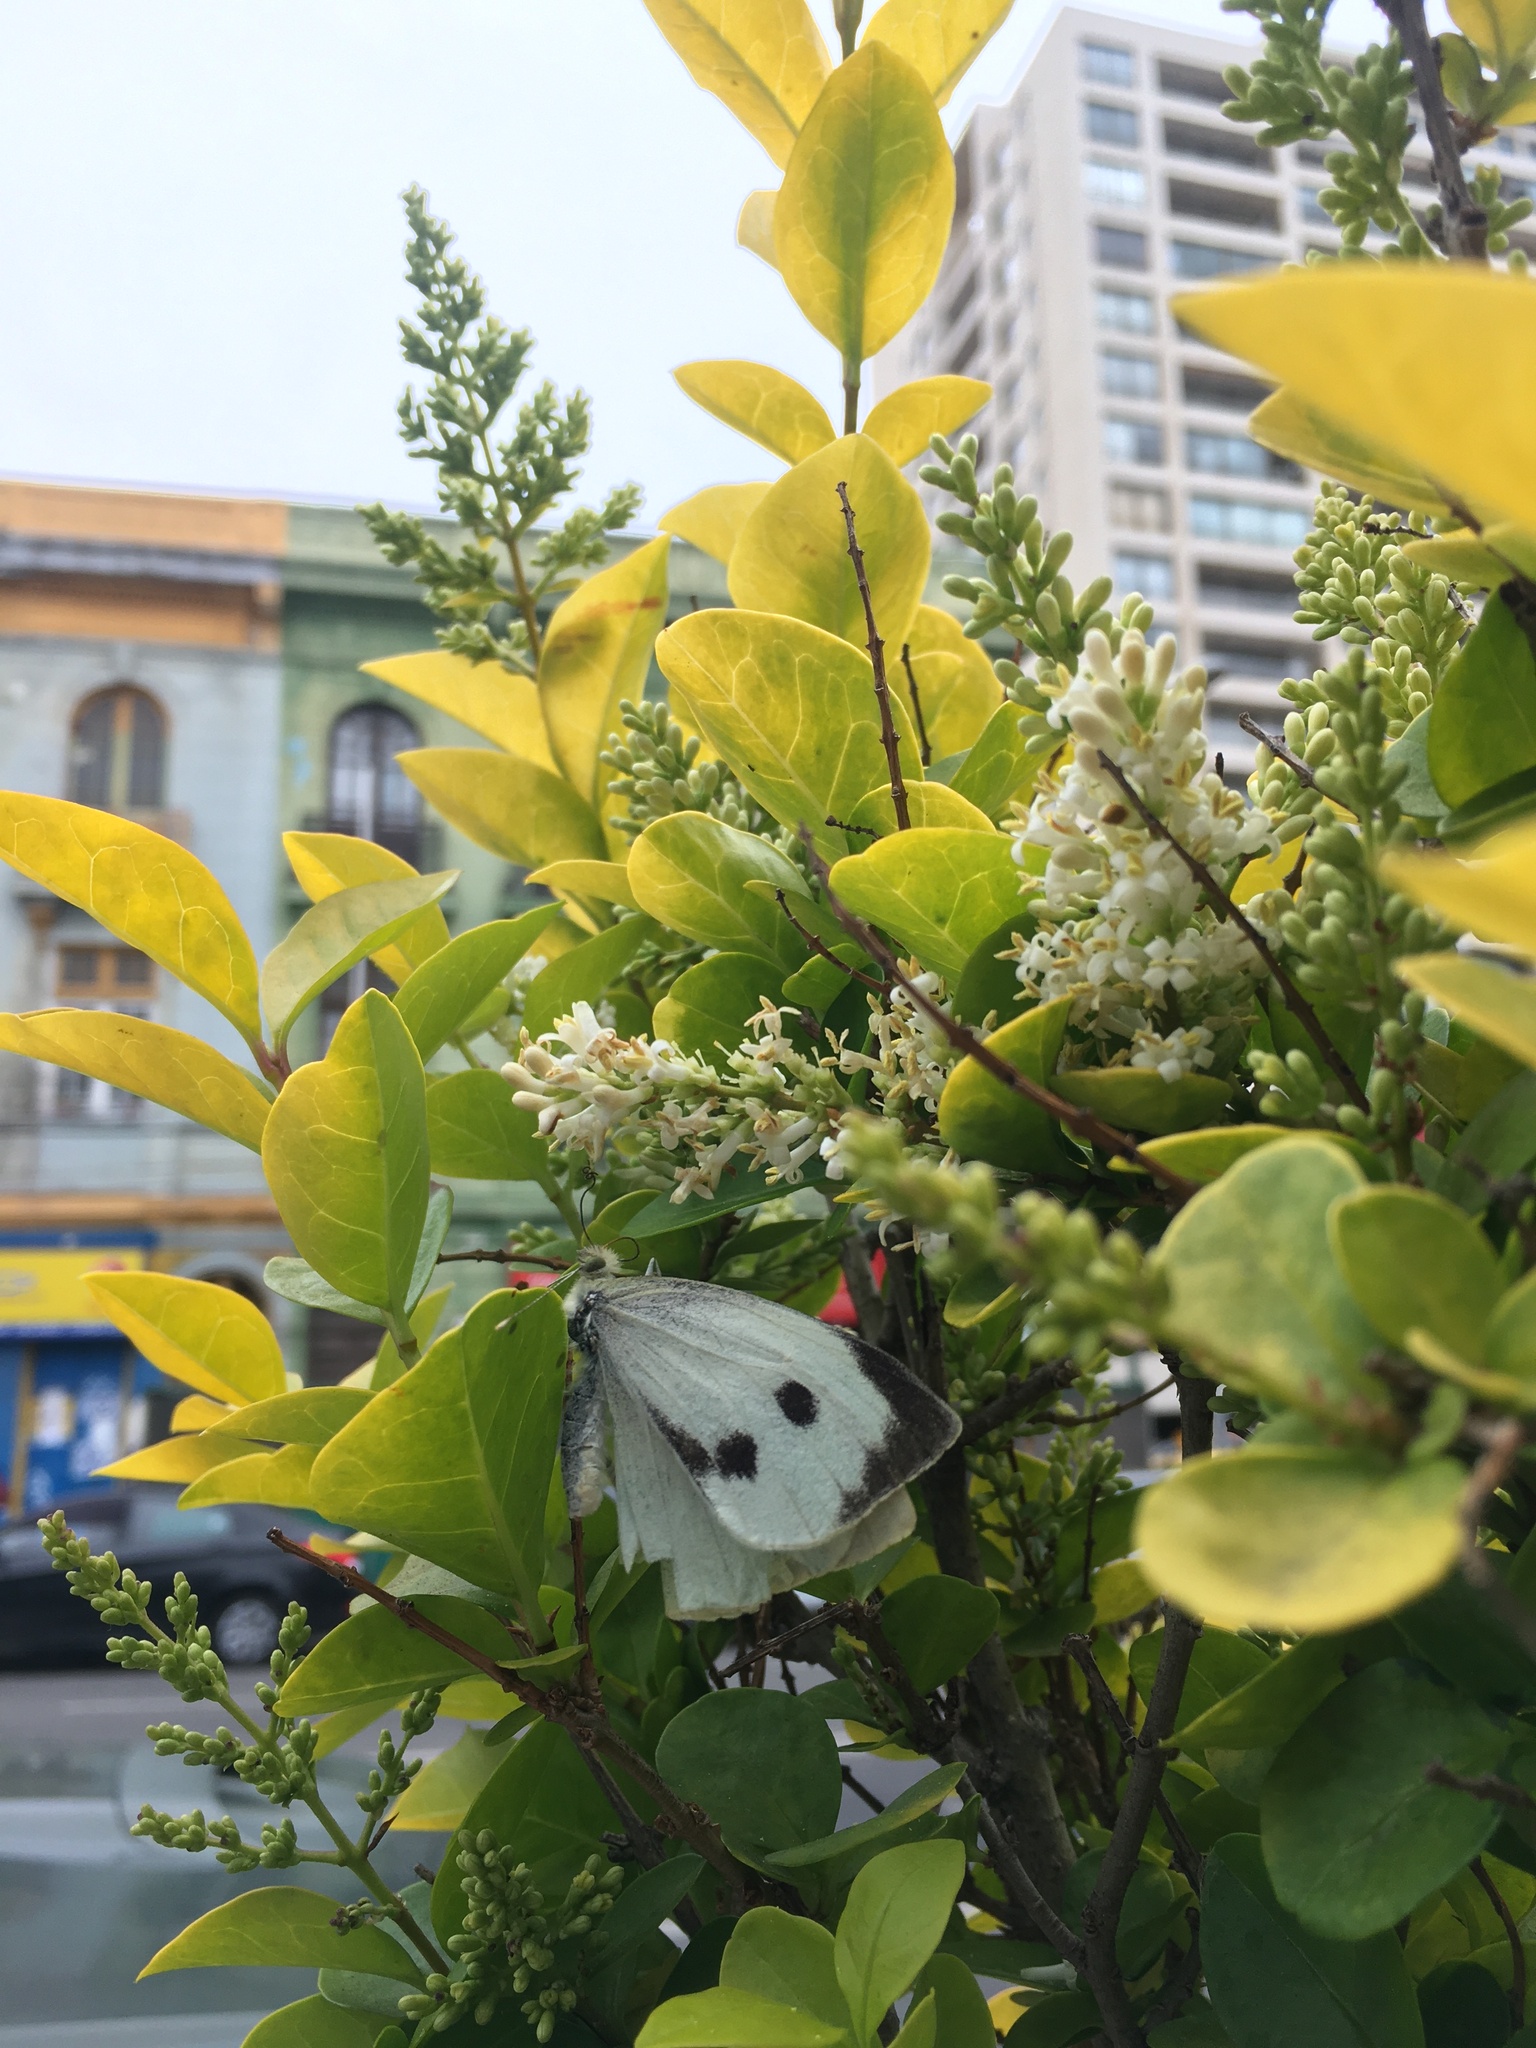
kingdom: Animalia
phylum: Arthropoda
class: Insecta
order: Lepidoptera
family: Pieridae
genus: Pieris
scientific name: Pieris brassicae
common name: Large white
